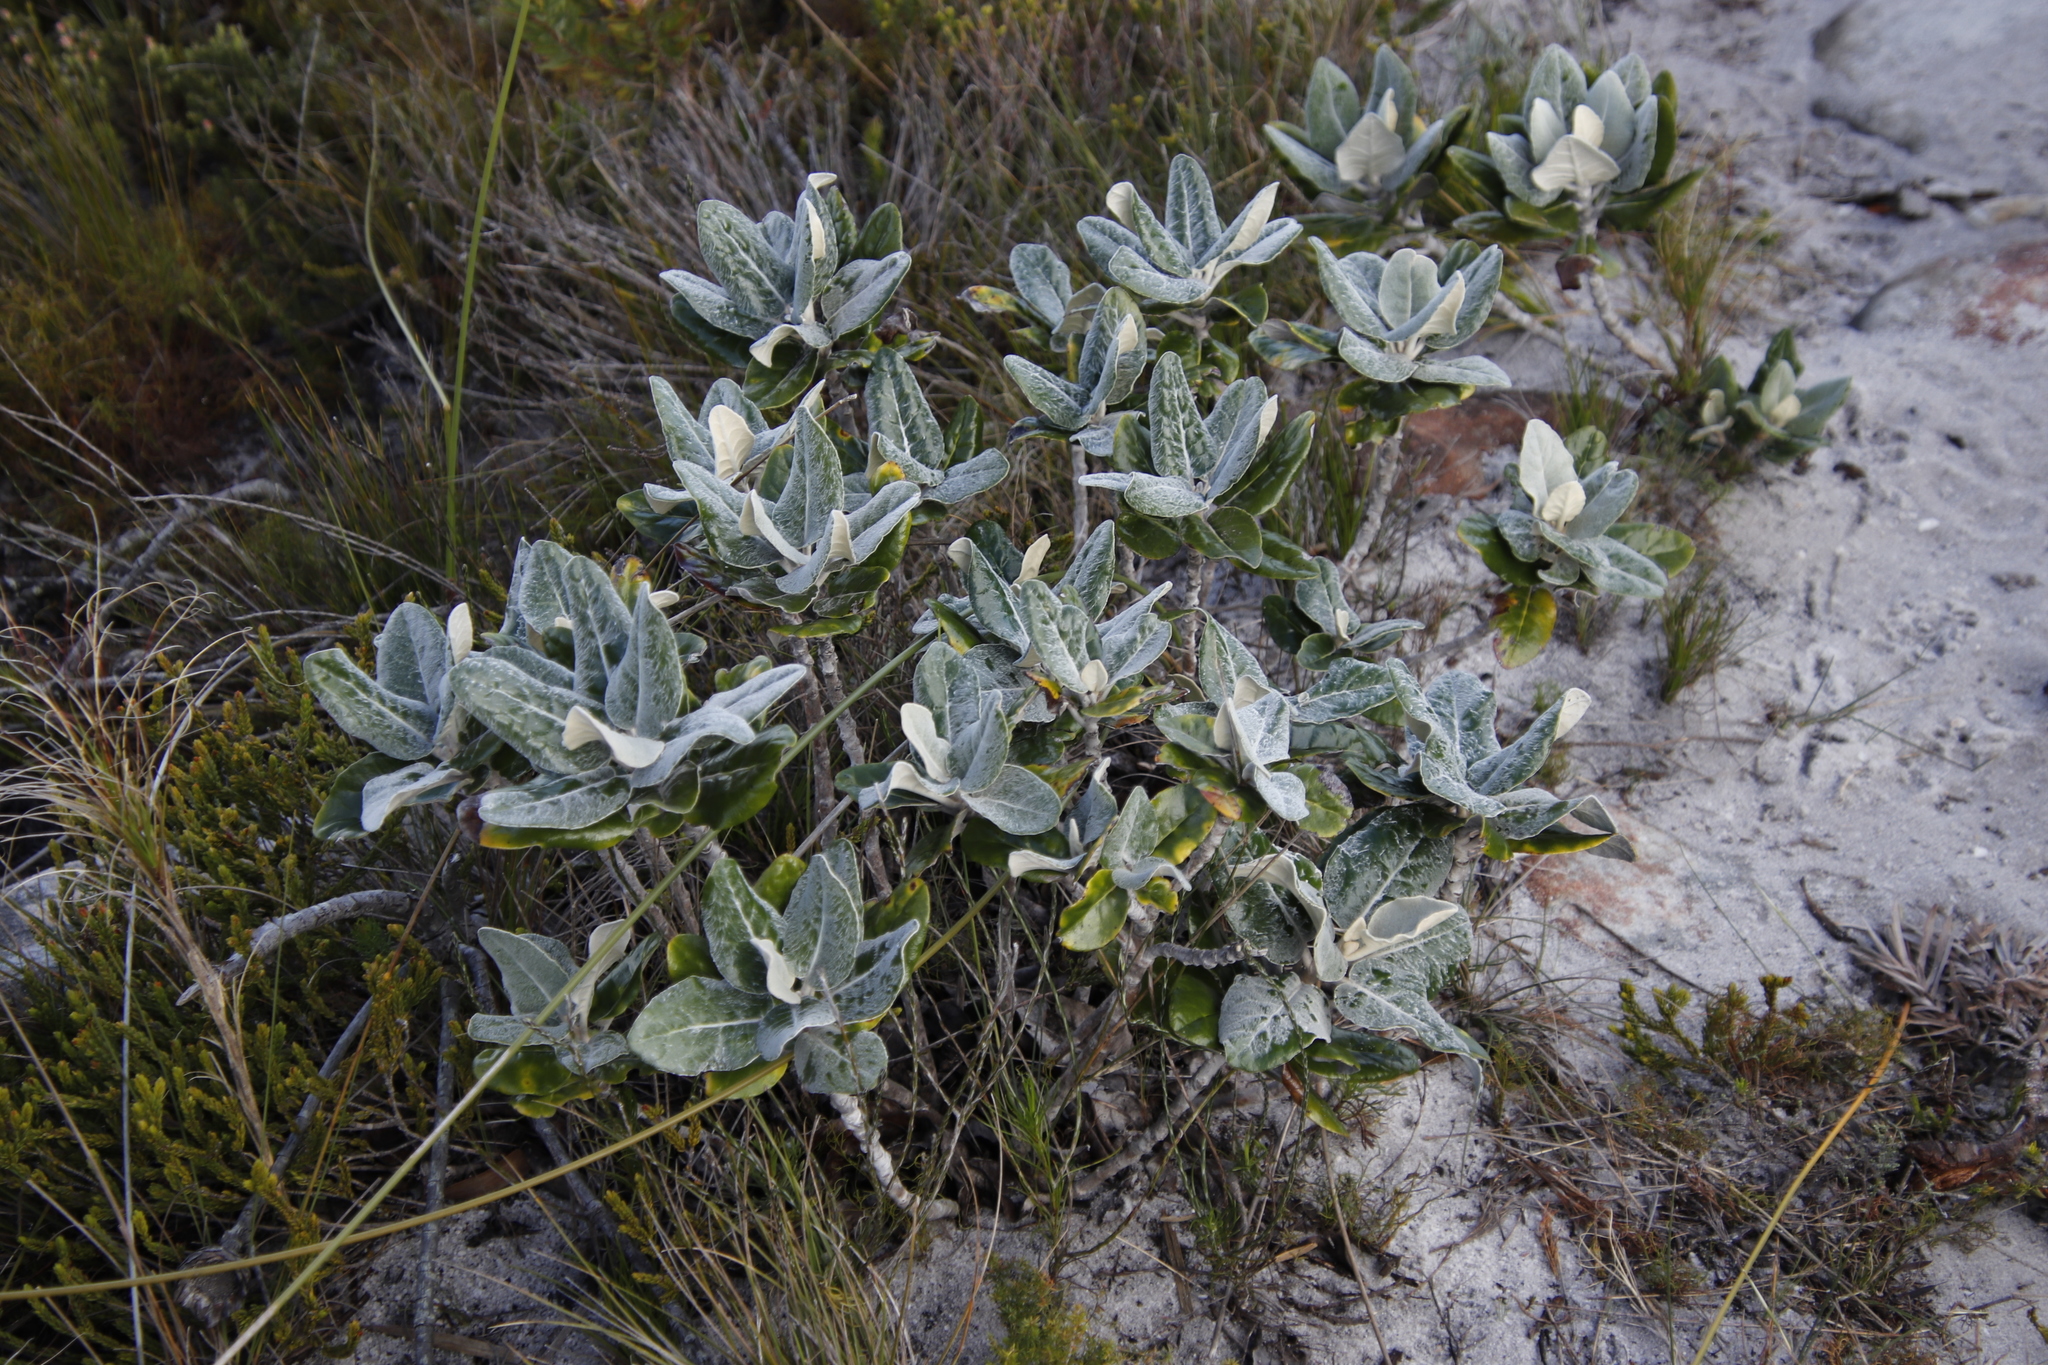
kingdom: Plantae
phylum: Tracheophyta
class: Magnoliopsida
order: Asterales
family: Asteraceae
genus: Capelio
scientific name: Capelio tabularis
